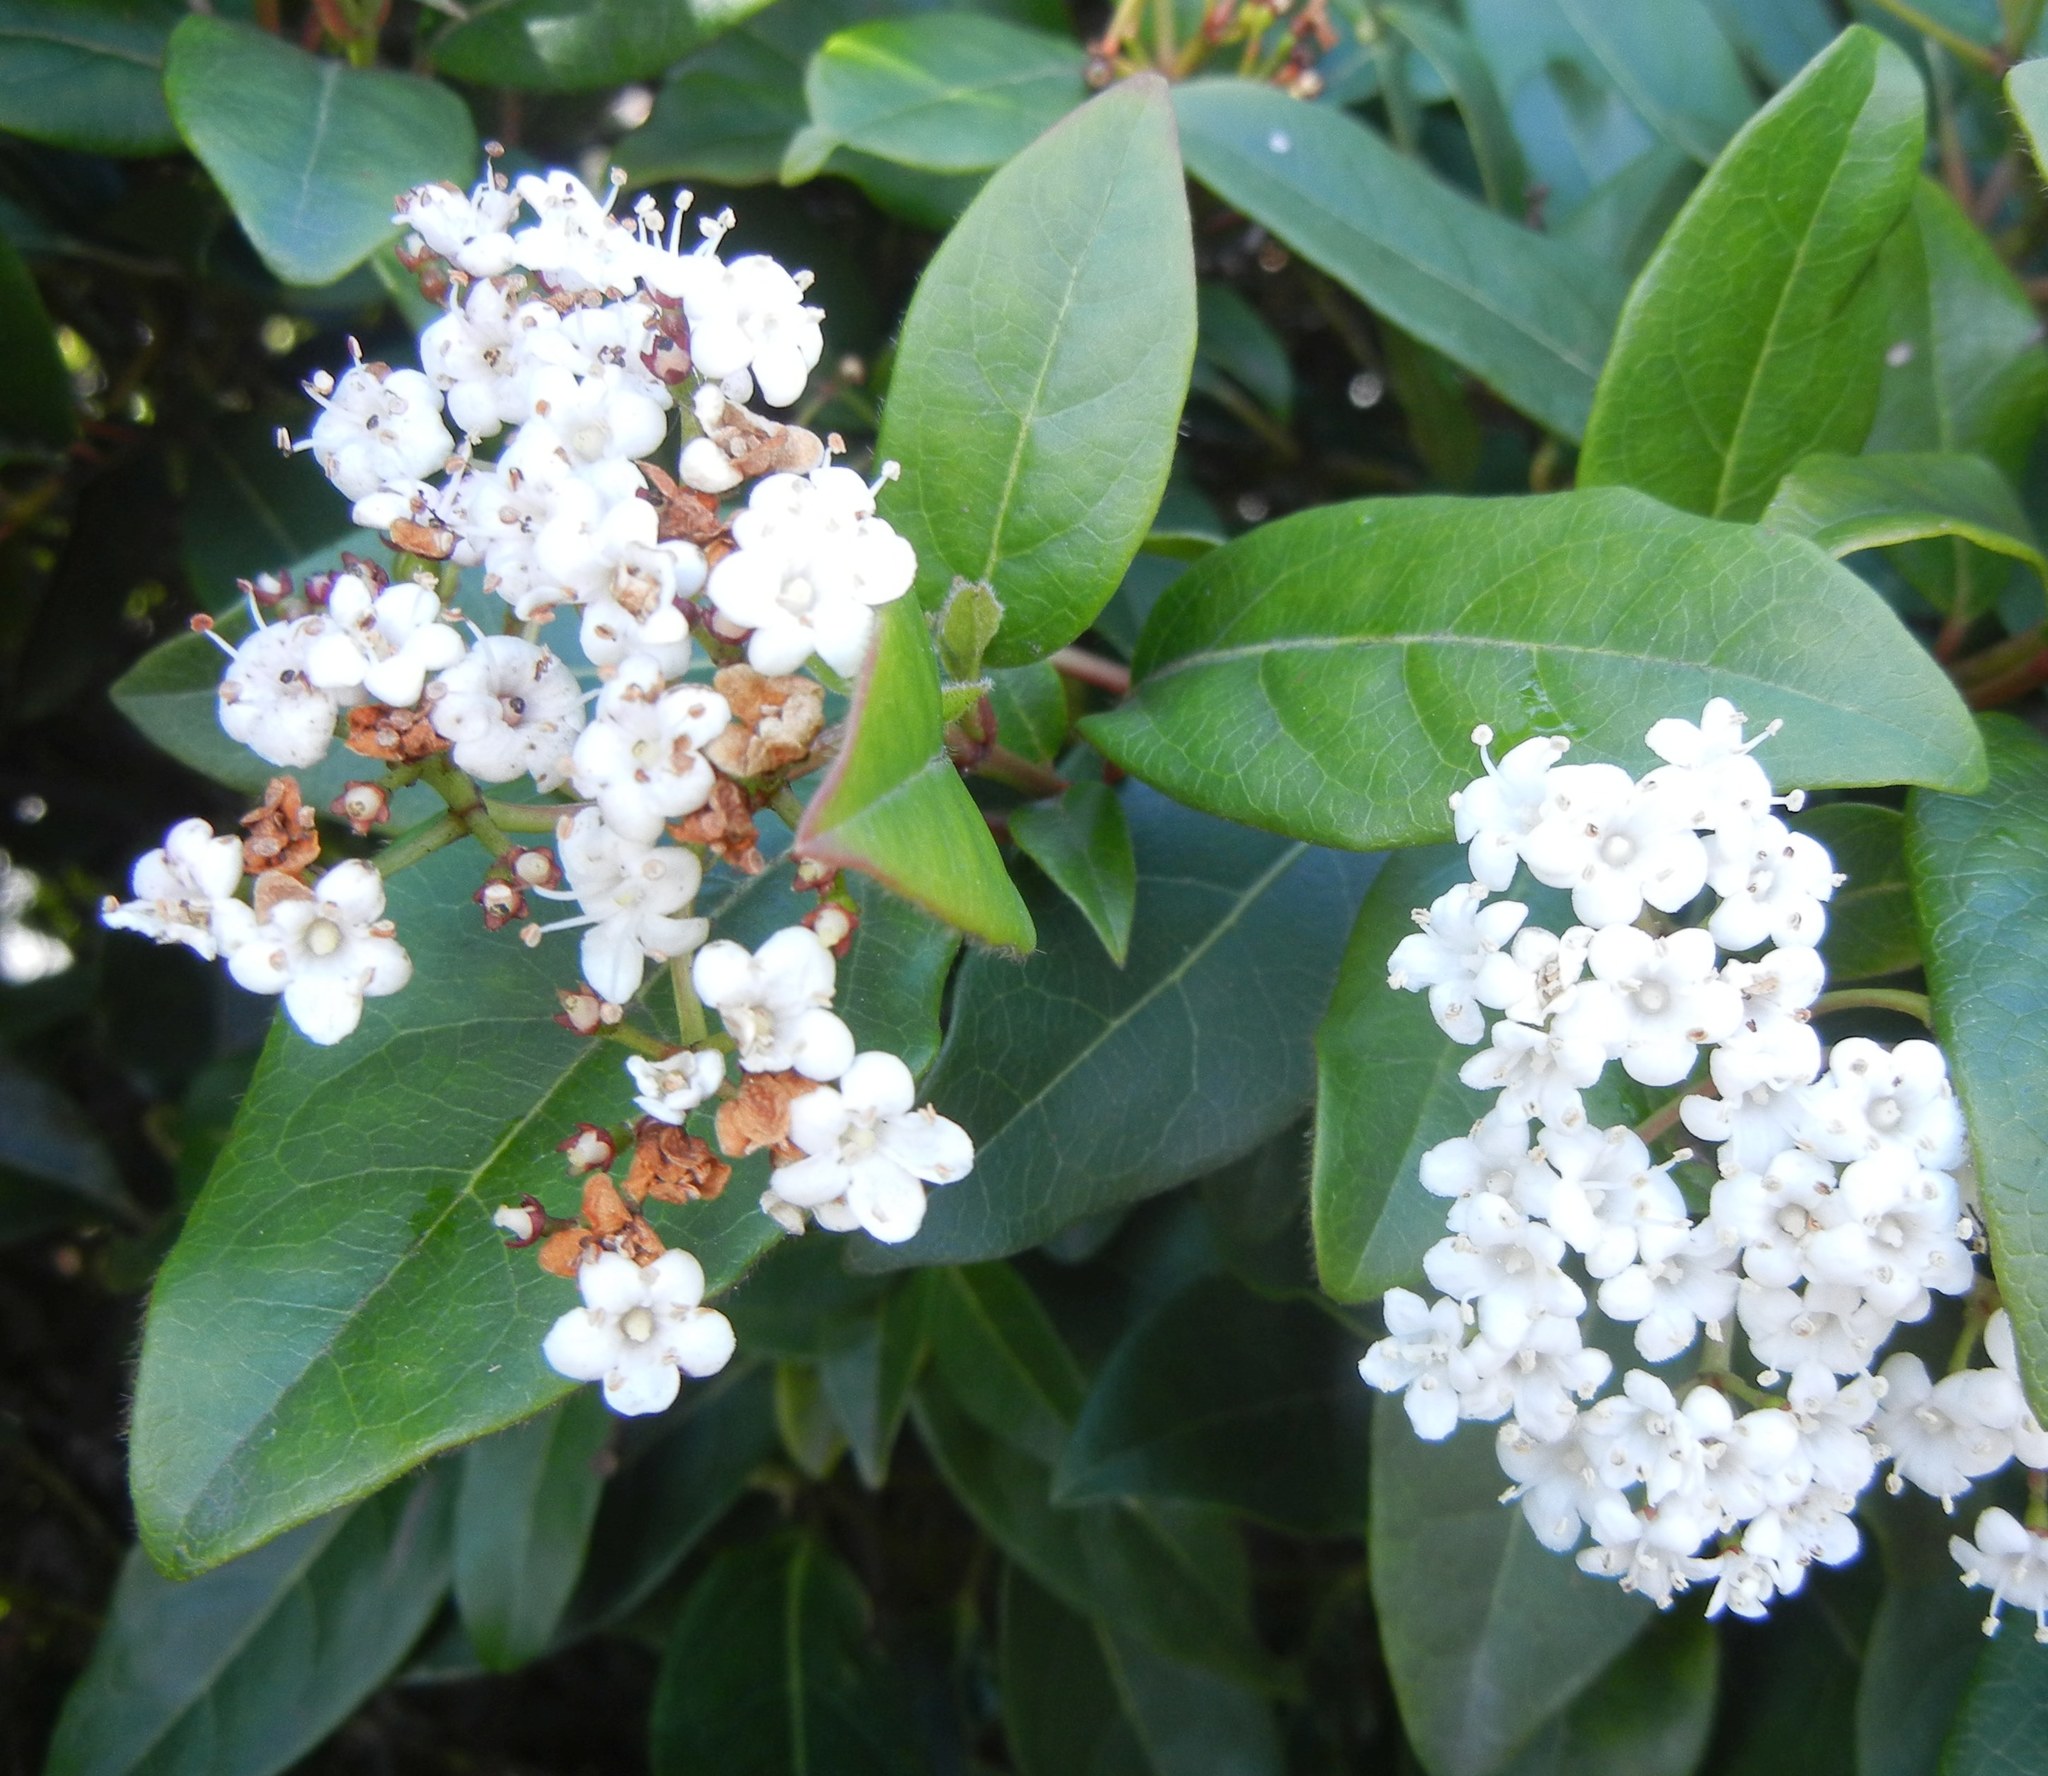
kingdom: Plantae
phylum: Tracheophyta
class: Magnoliopsida
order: Dipsacales
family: Viburnaceae
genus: Viburnum
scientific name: Viburnum tinus
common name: Laurustinus
